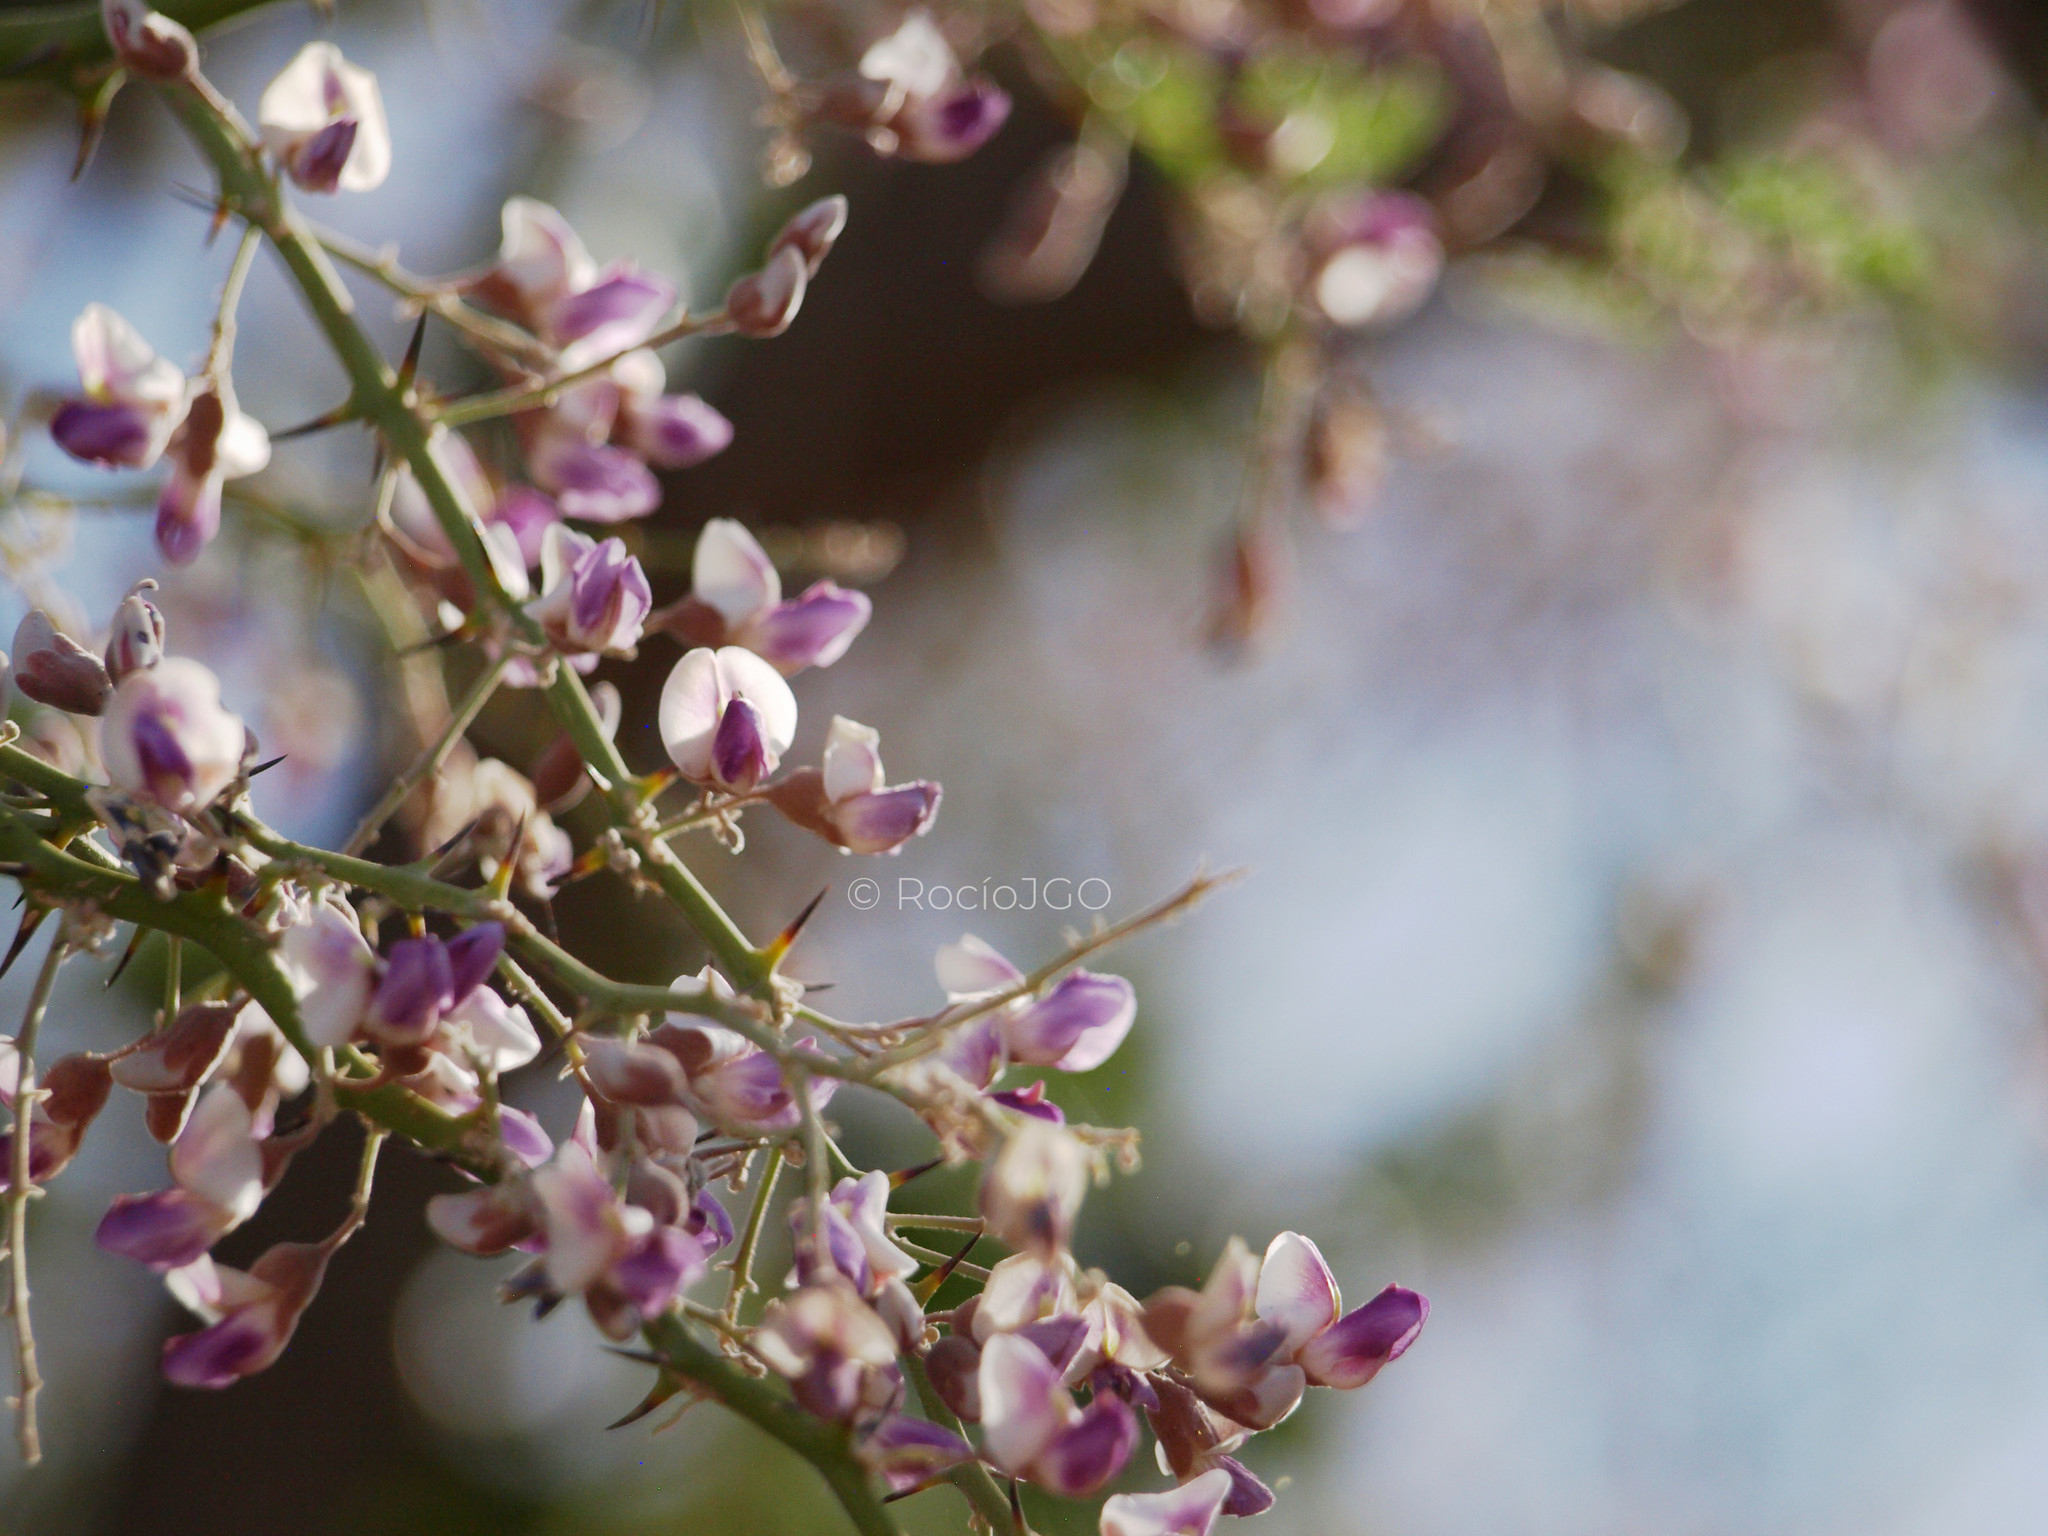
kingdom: Plantae
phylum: Tracheophyta
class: Magnoliopsida
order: Fabales
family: Fabaceae
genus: Olneya
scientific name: Olneya tesota
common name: Desert ironwood
